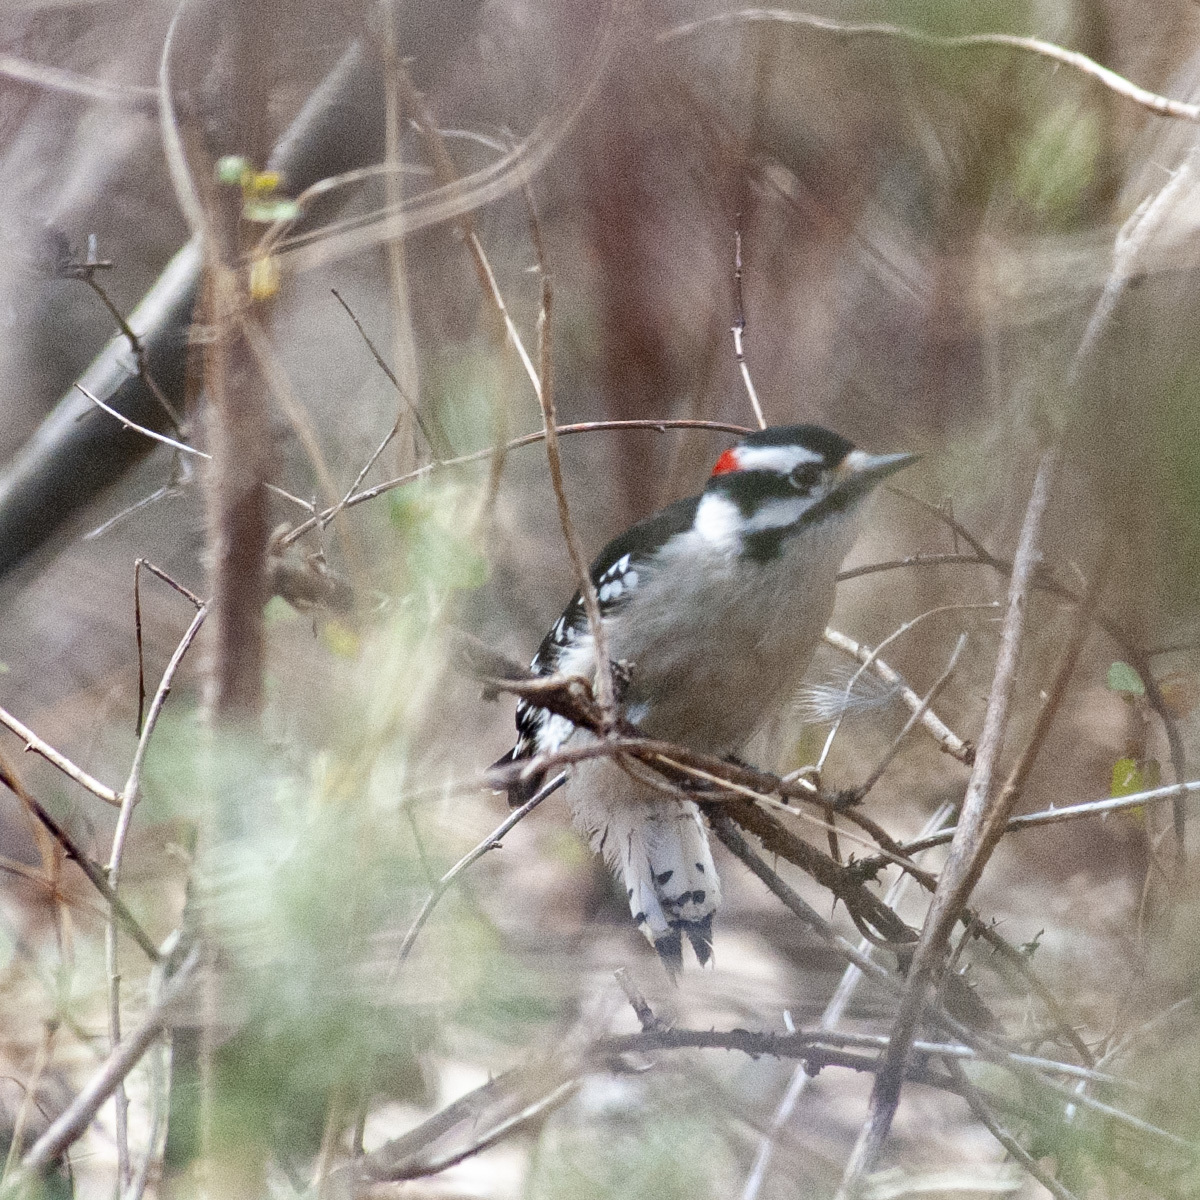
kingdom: Animalia
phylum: Chordata
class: Aves
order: Piciformes
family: Picidae
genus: Dryobates
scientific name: Dryobates pubescens
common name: Downy woodpecker
